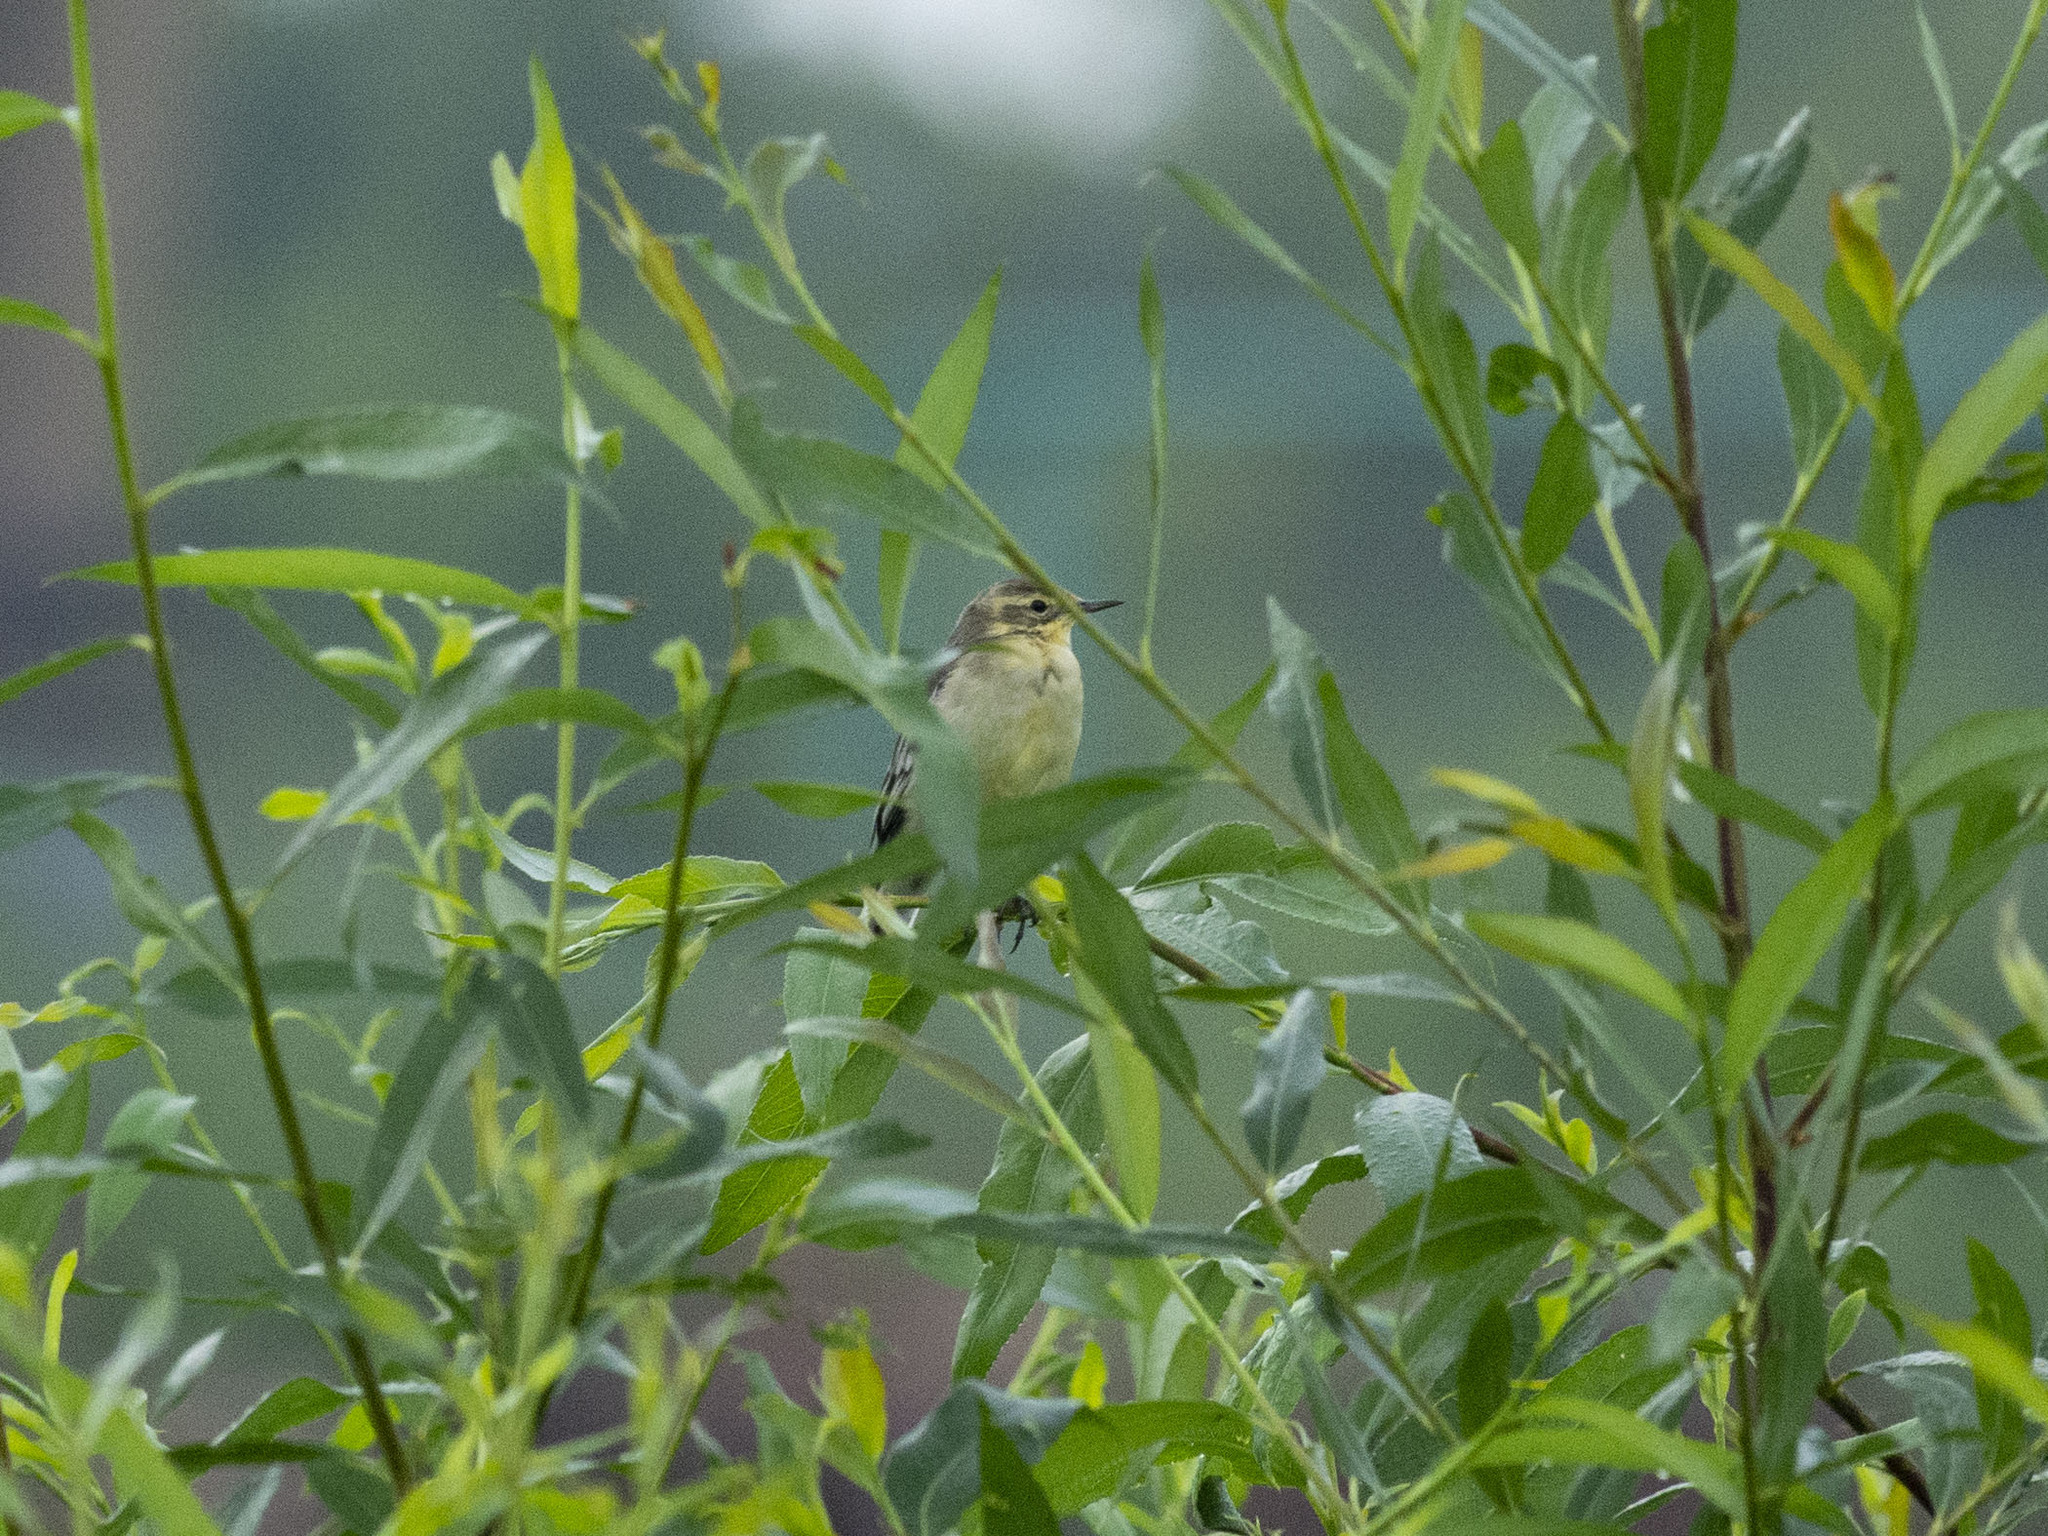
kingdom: Animalia
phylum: Chordata
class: Aves
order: Passeriformes
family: Motacillidae
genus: Motacilla
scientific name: Motacilla citreola
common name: Citrine wagtail
